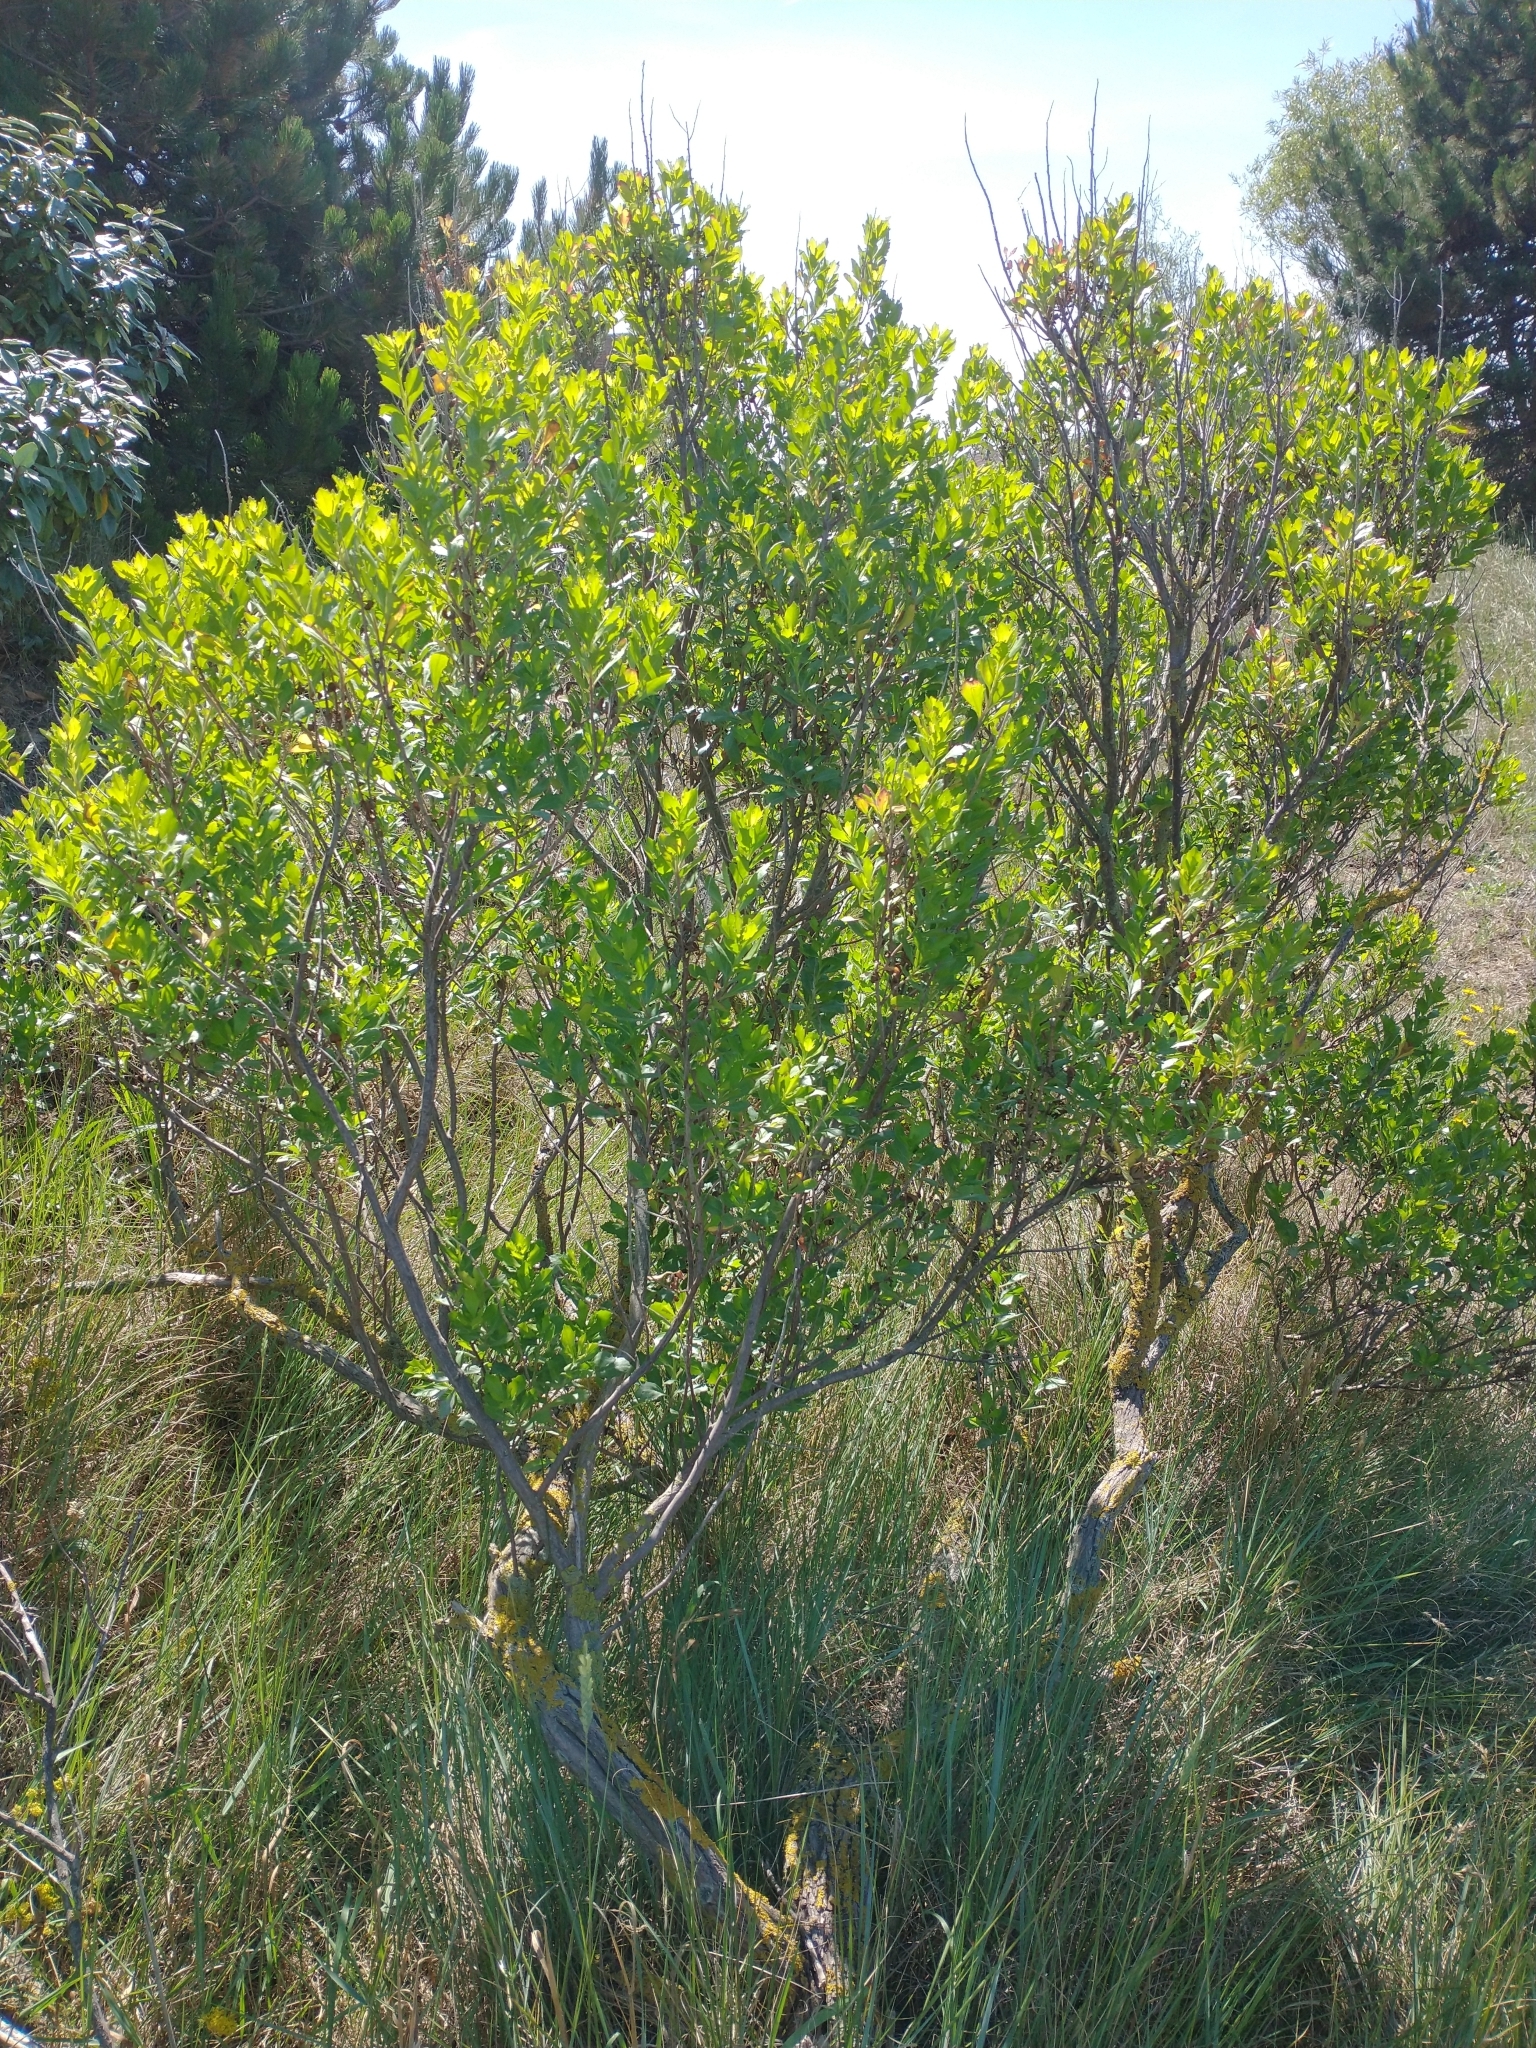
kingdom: Plantae
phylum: Tracheophyta
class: Magnoliopsida
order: Asterales
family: Asteraceae
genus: Baccharis
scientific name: Baccharis halimifolia
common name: Eastern baccharis
